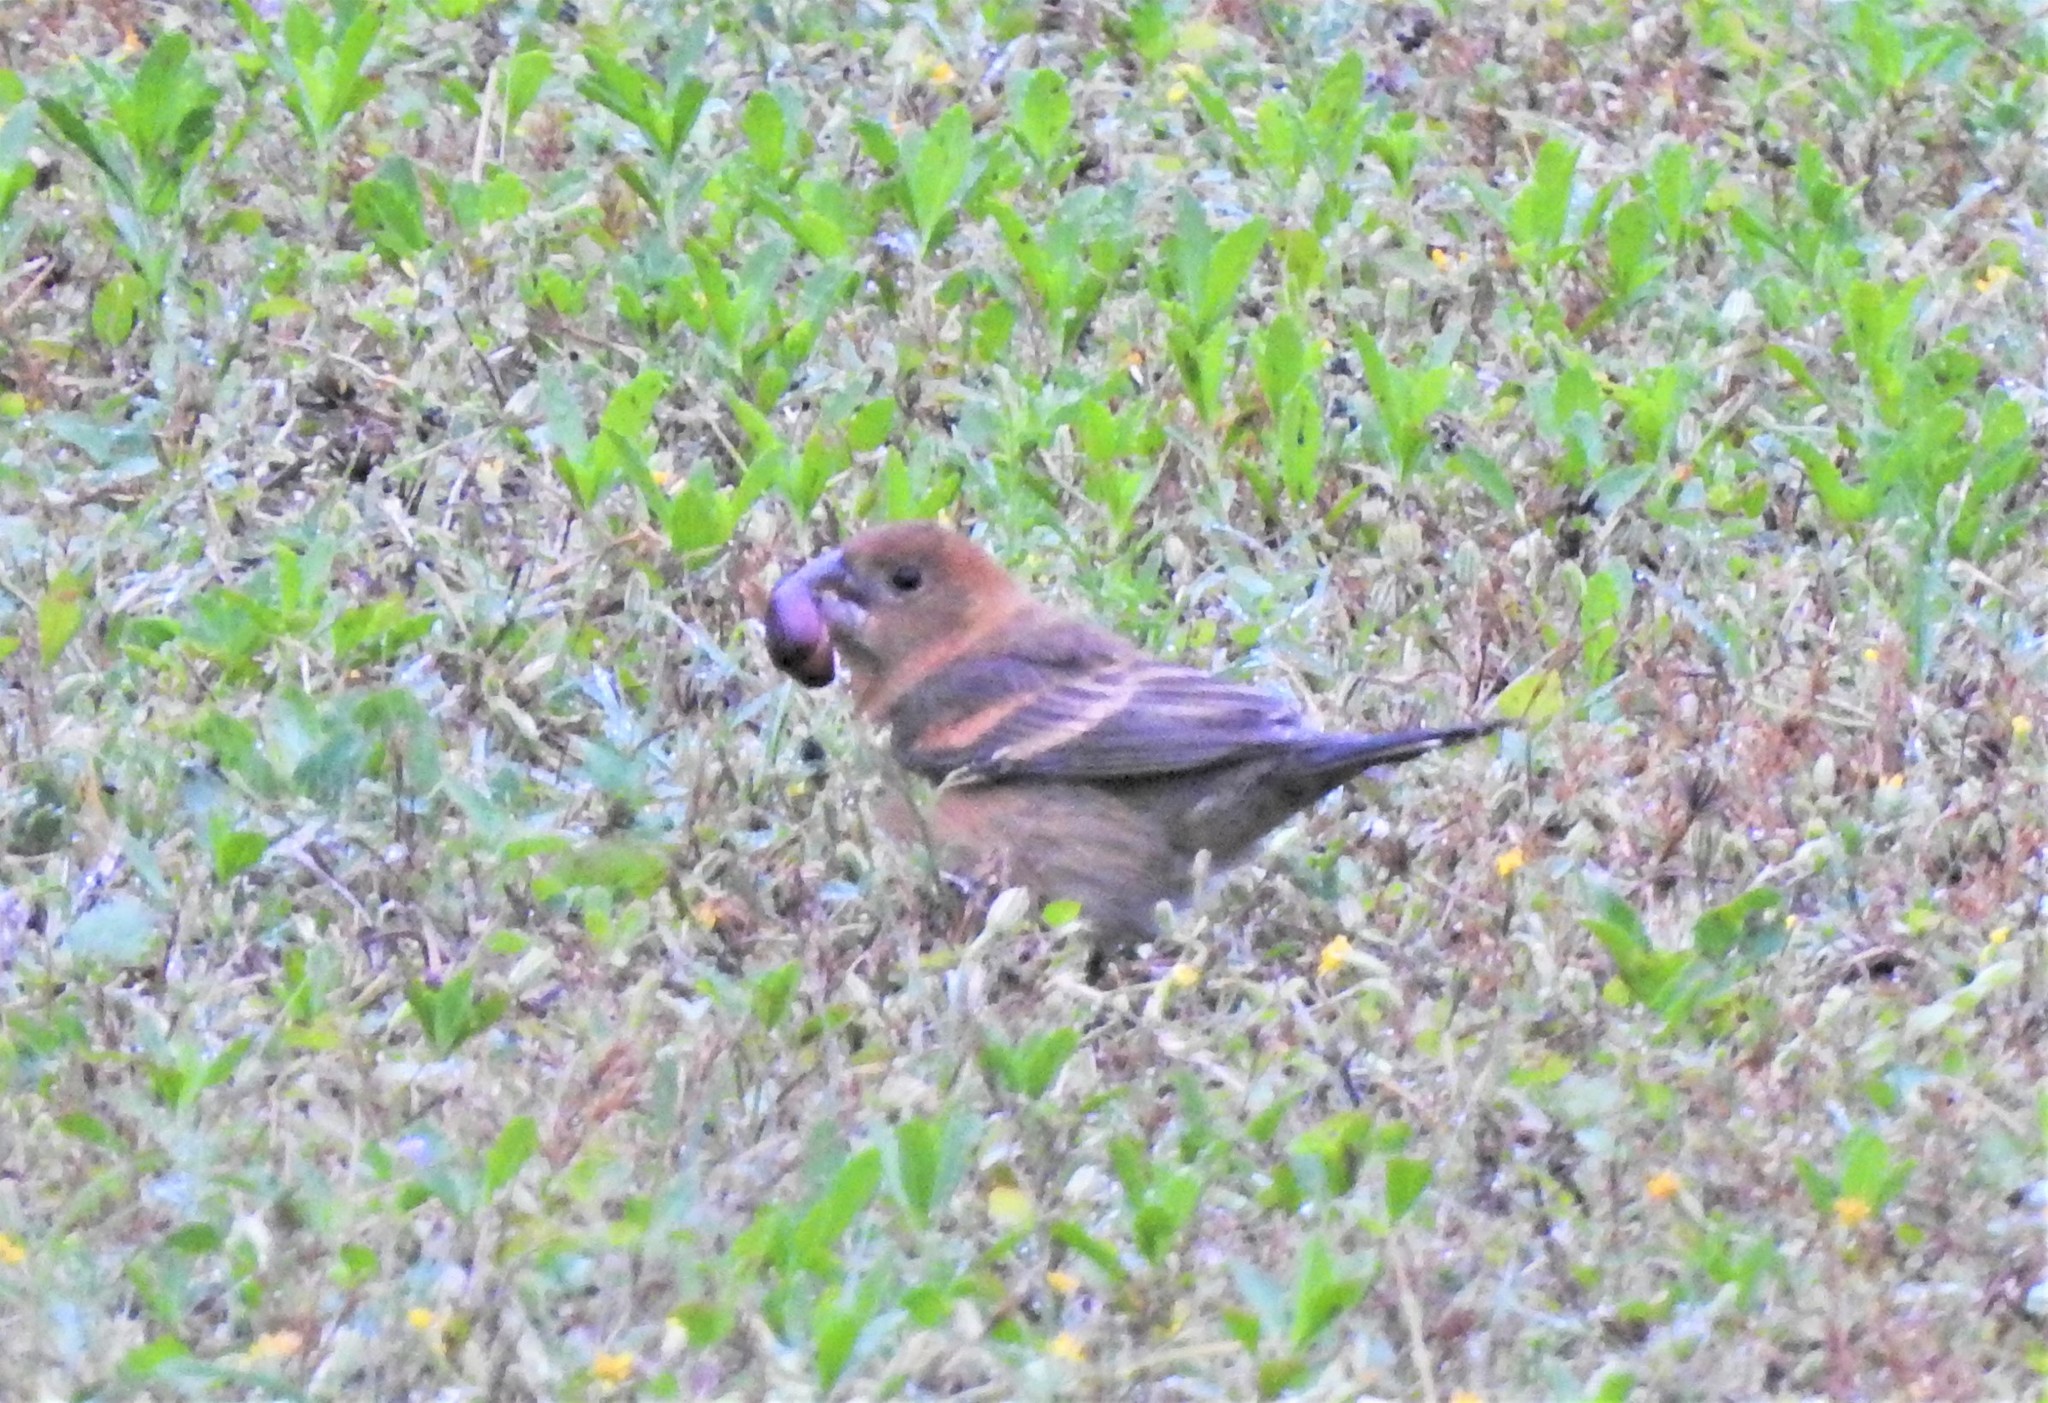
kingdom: Animalia
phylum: Chordata
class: Aves
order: Passeriformes
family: Cardinalidae
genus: Passerina
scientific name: Passerina caerulea
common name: Blue grosbeak
